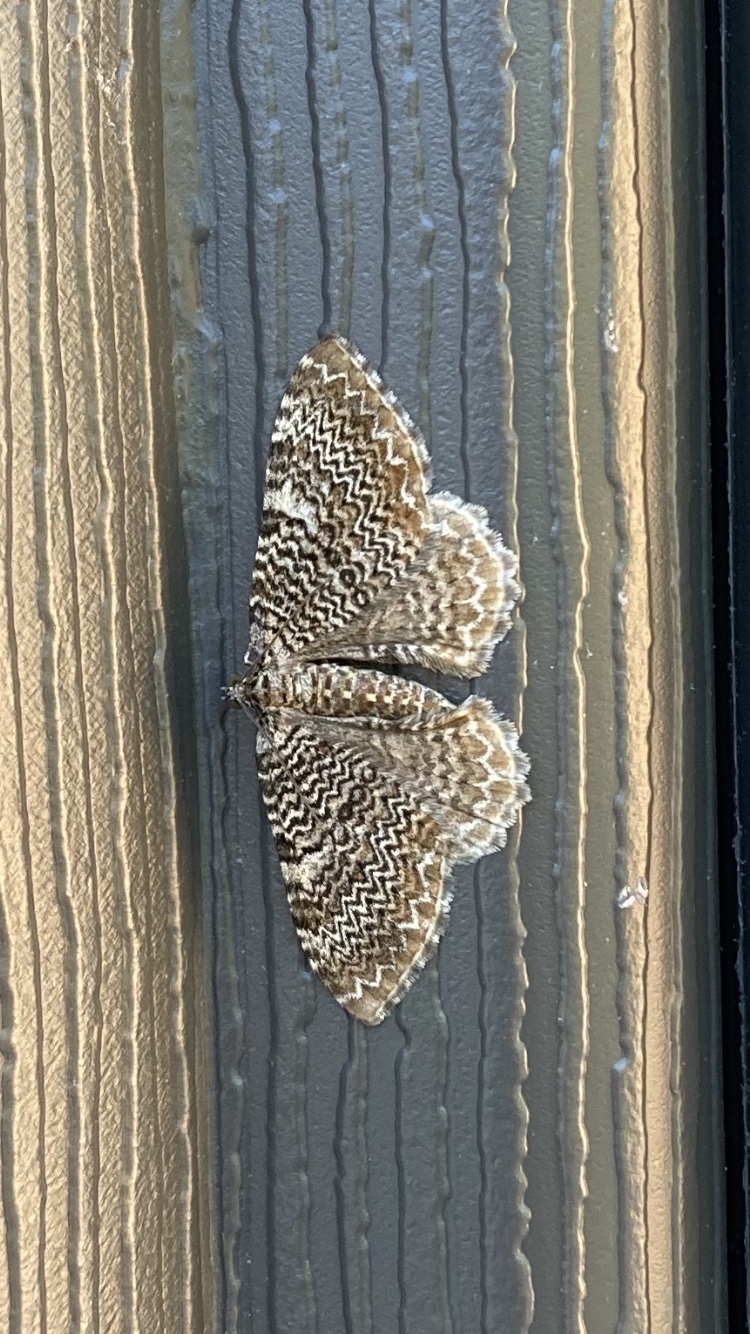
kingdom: Animalia
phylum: Arthropoda
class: Insecta
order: Lepidoptera
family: Geometridae
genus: Rheumaptera
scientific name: Rheumaptera
